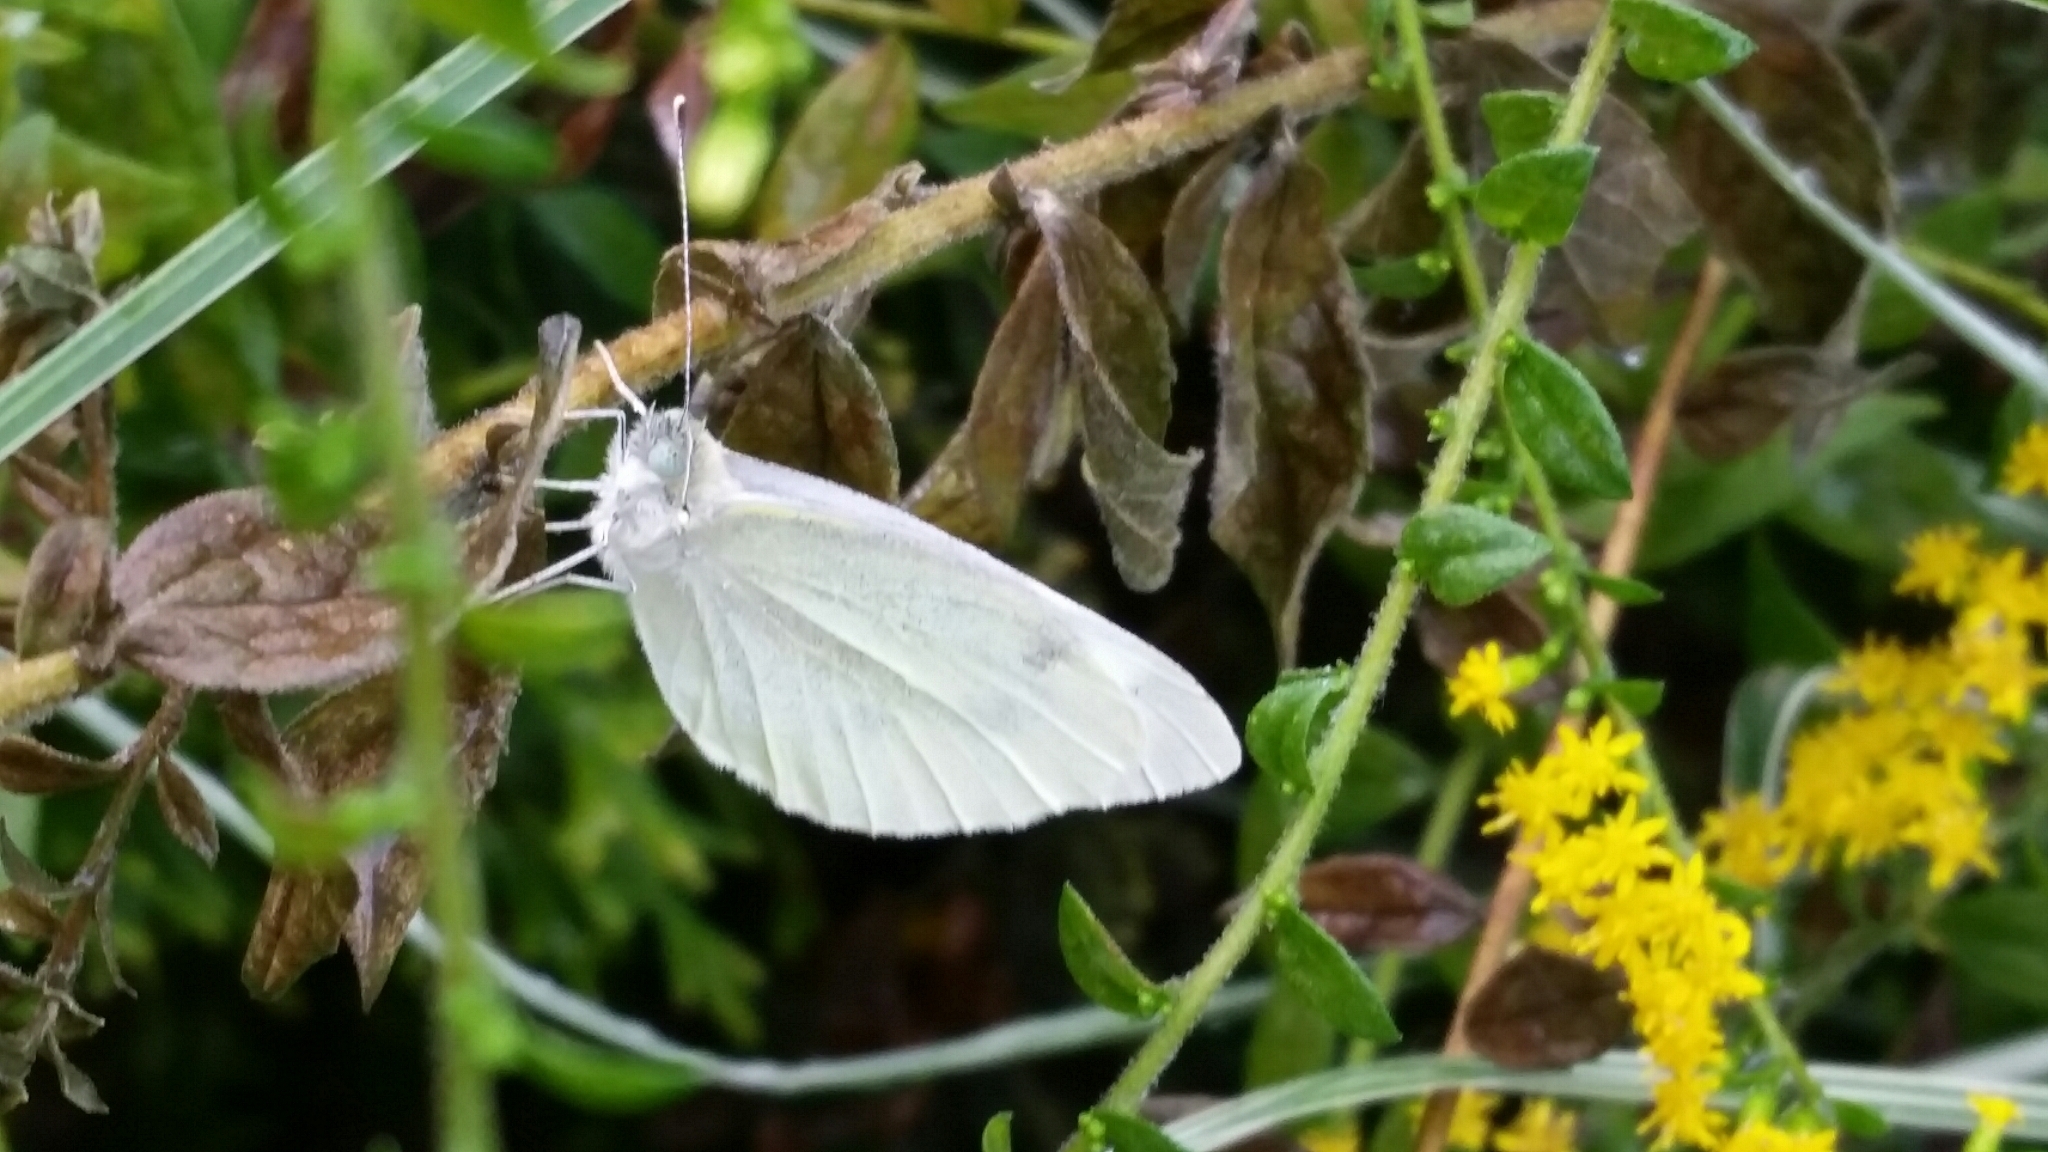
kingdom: Animalia
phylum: Arthropoda
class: Insecta
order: Lepidoptera
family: Pieridae
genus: Pieris
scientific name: Pieris rapae
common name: Small white
